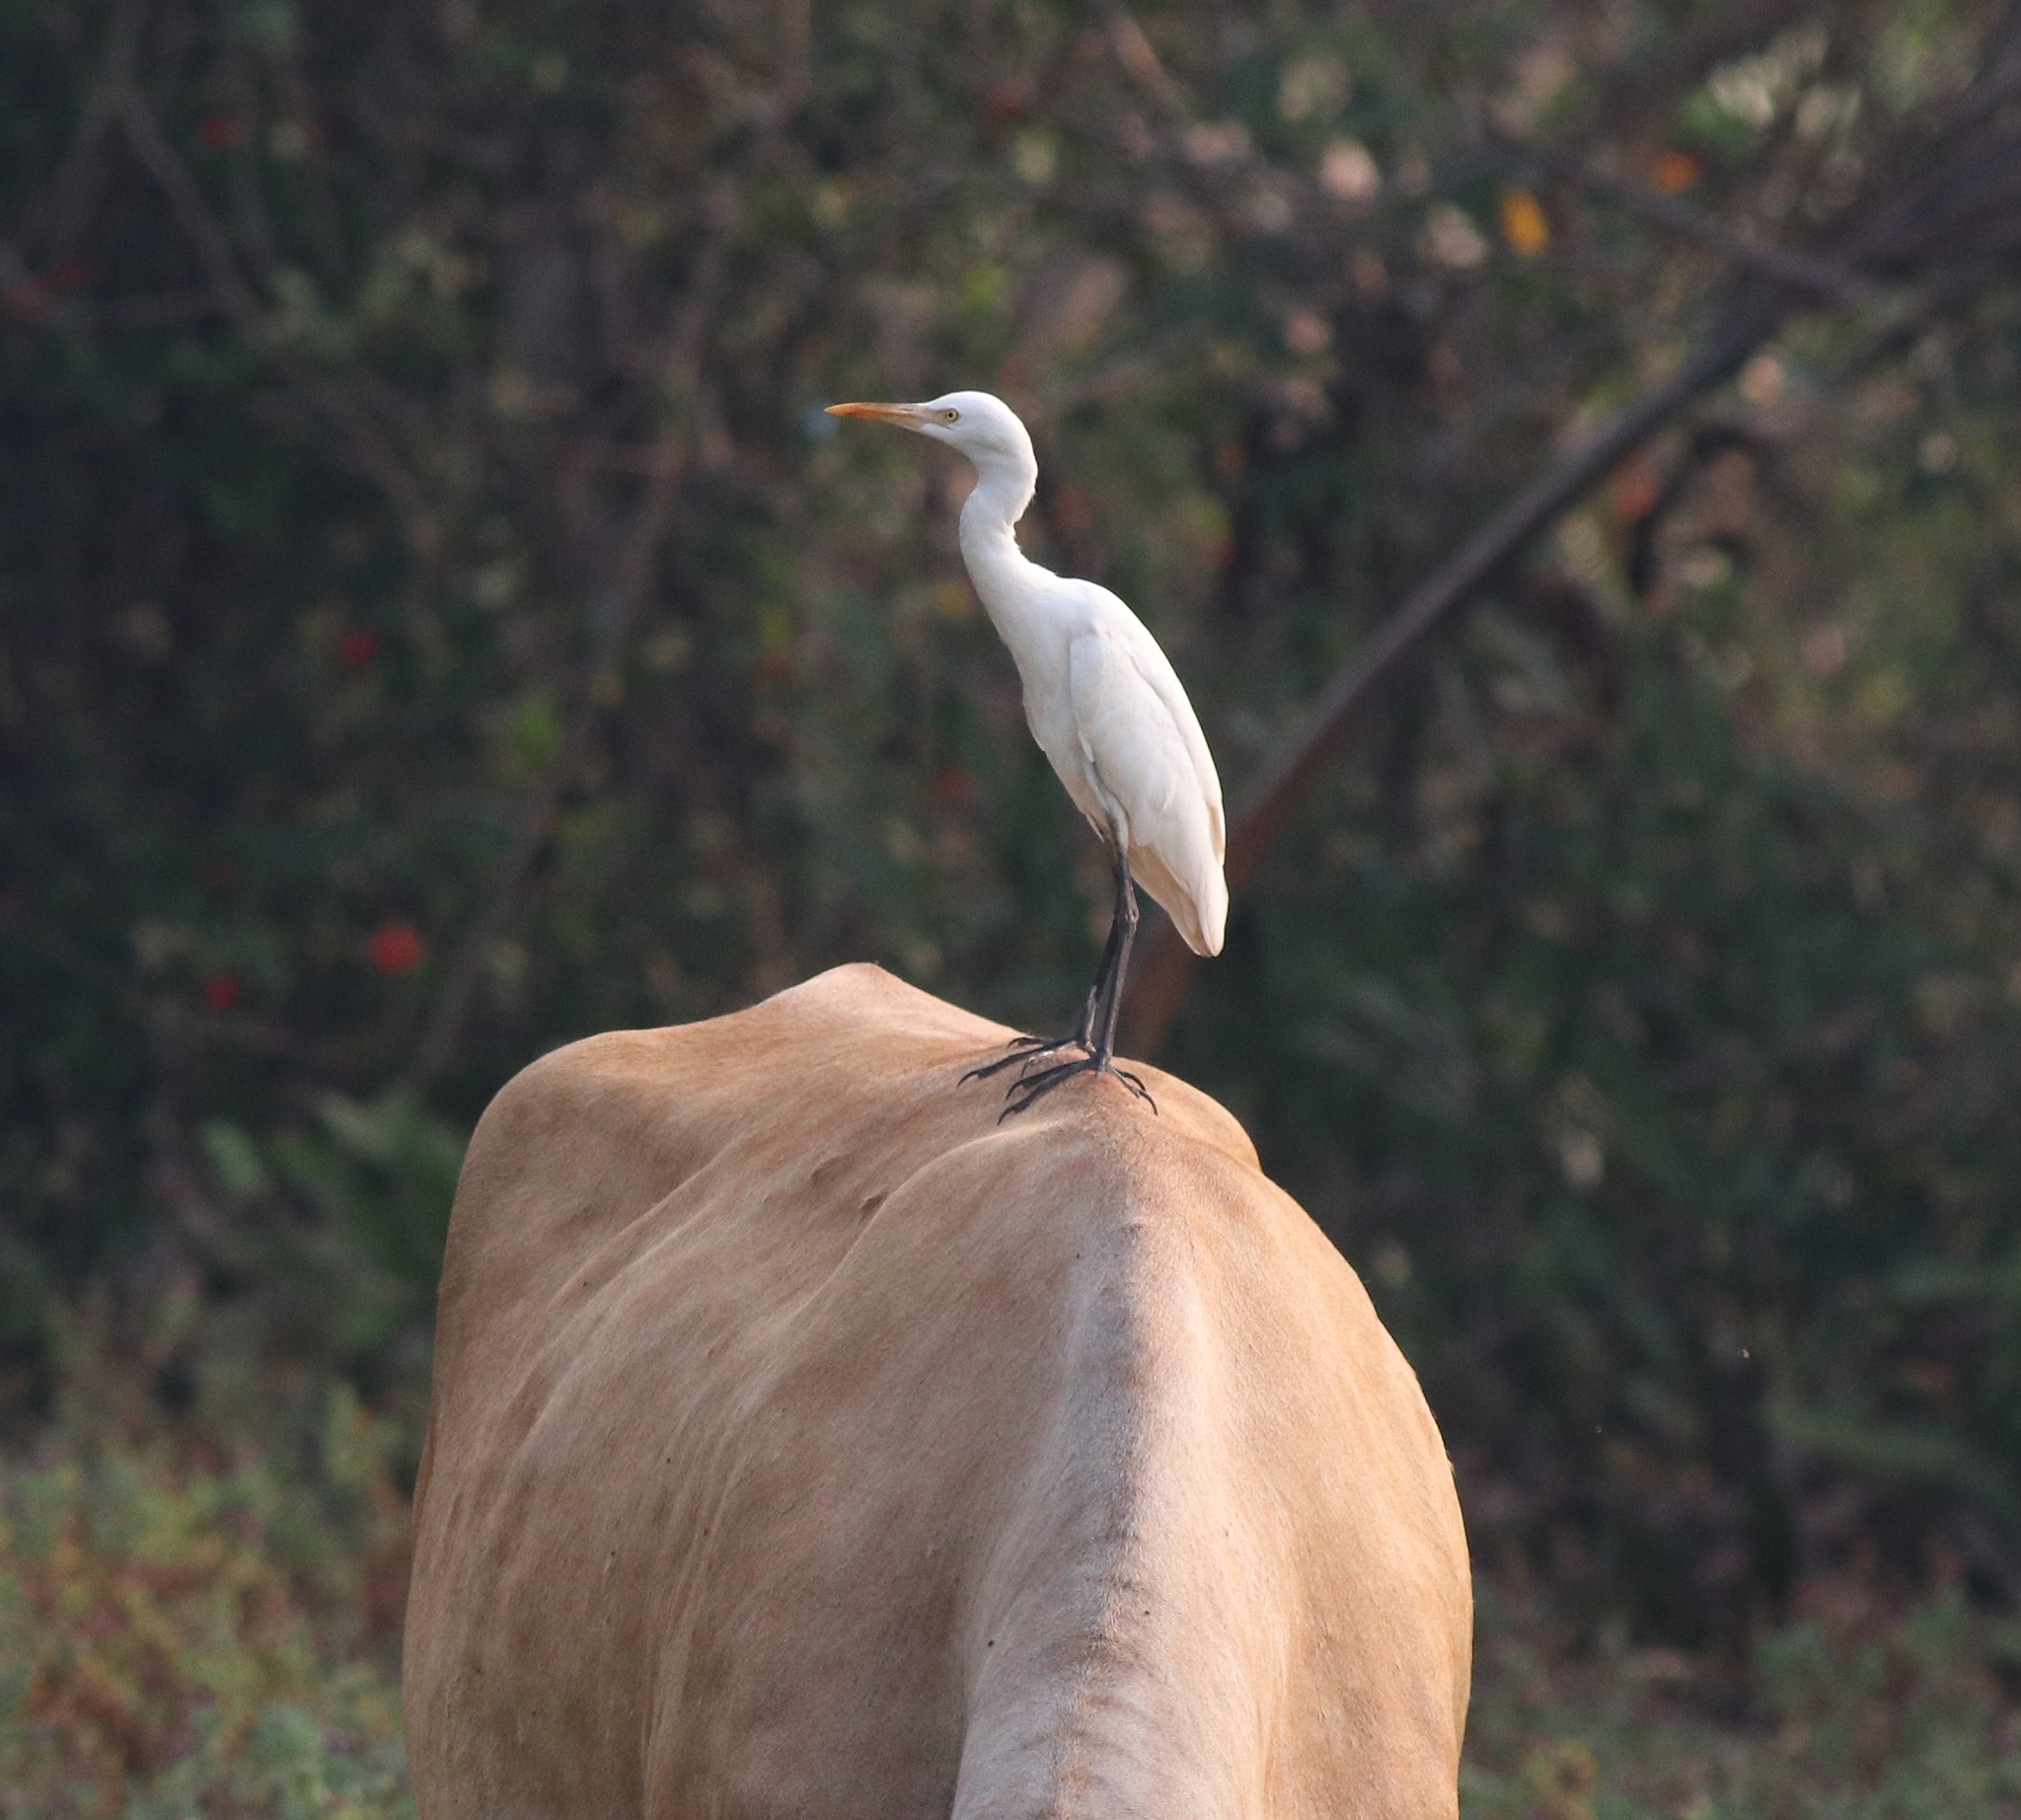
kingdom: Animalia
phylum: Chordata
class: Aves
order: Pelecaniformes
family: Ardeidae
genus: Bubulcus
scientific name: Bubulcus coromandus
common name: Eastern cattle egret
